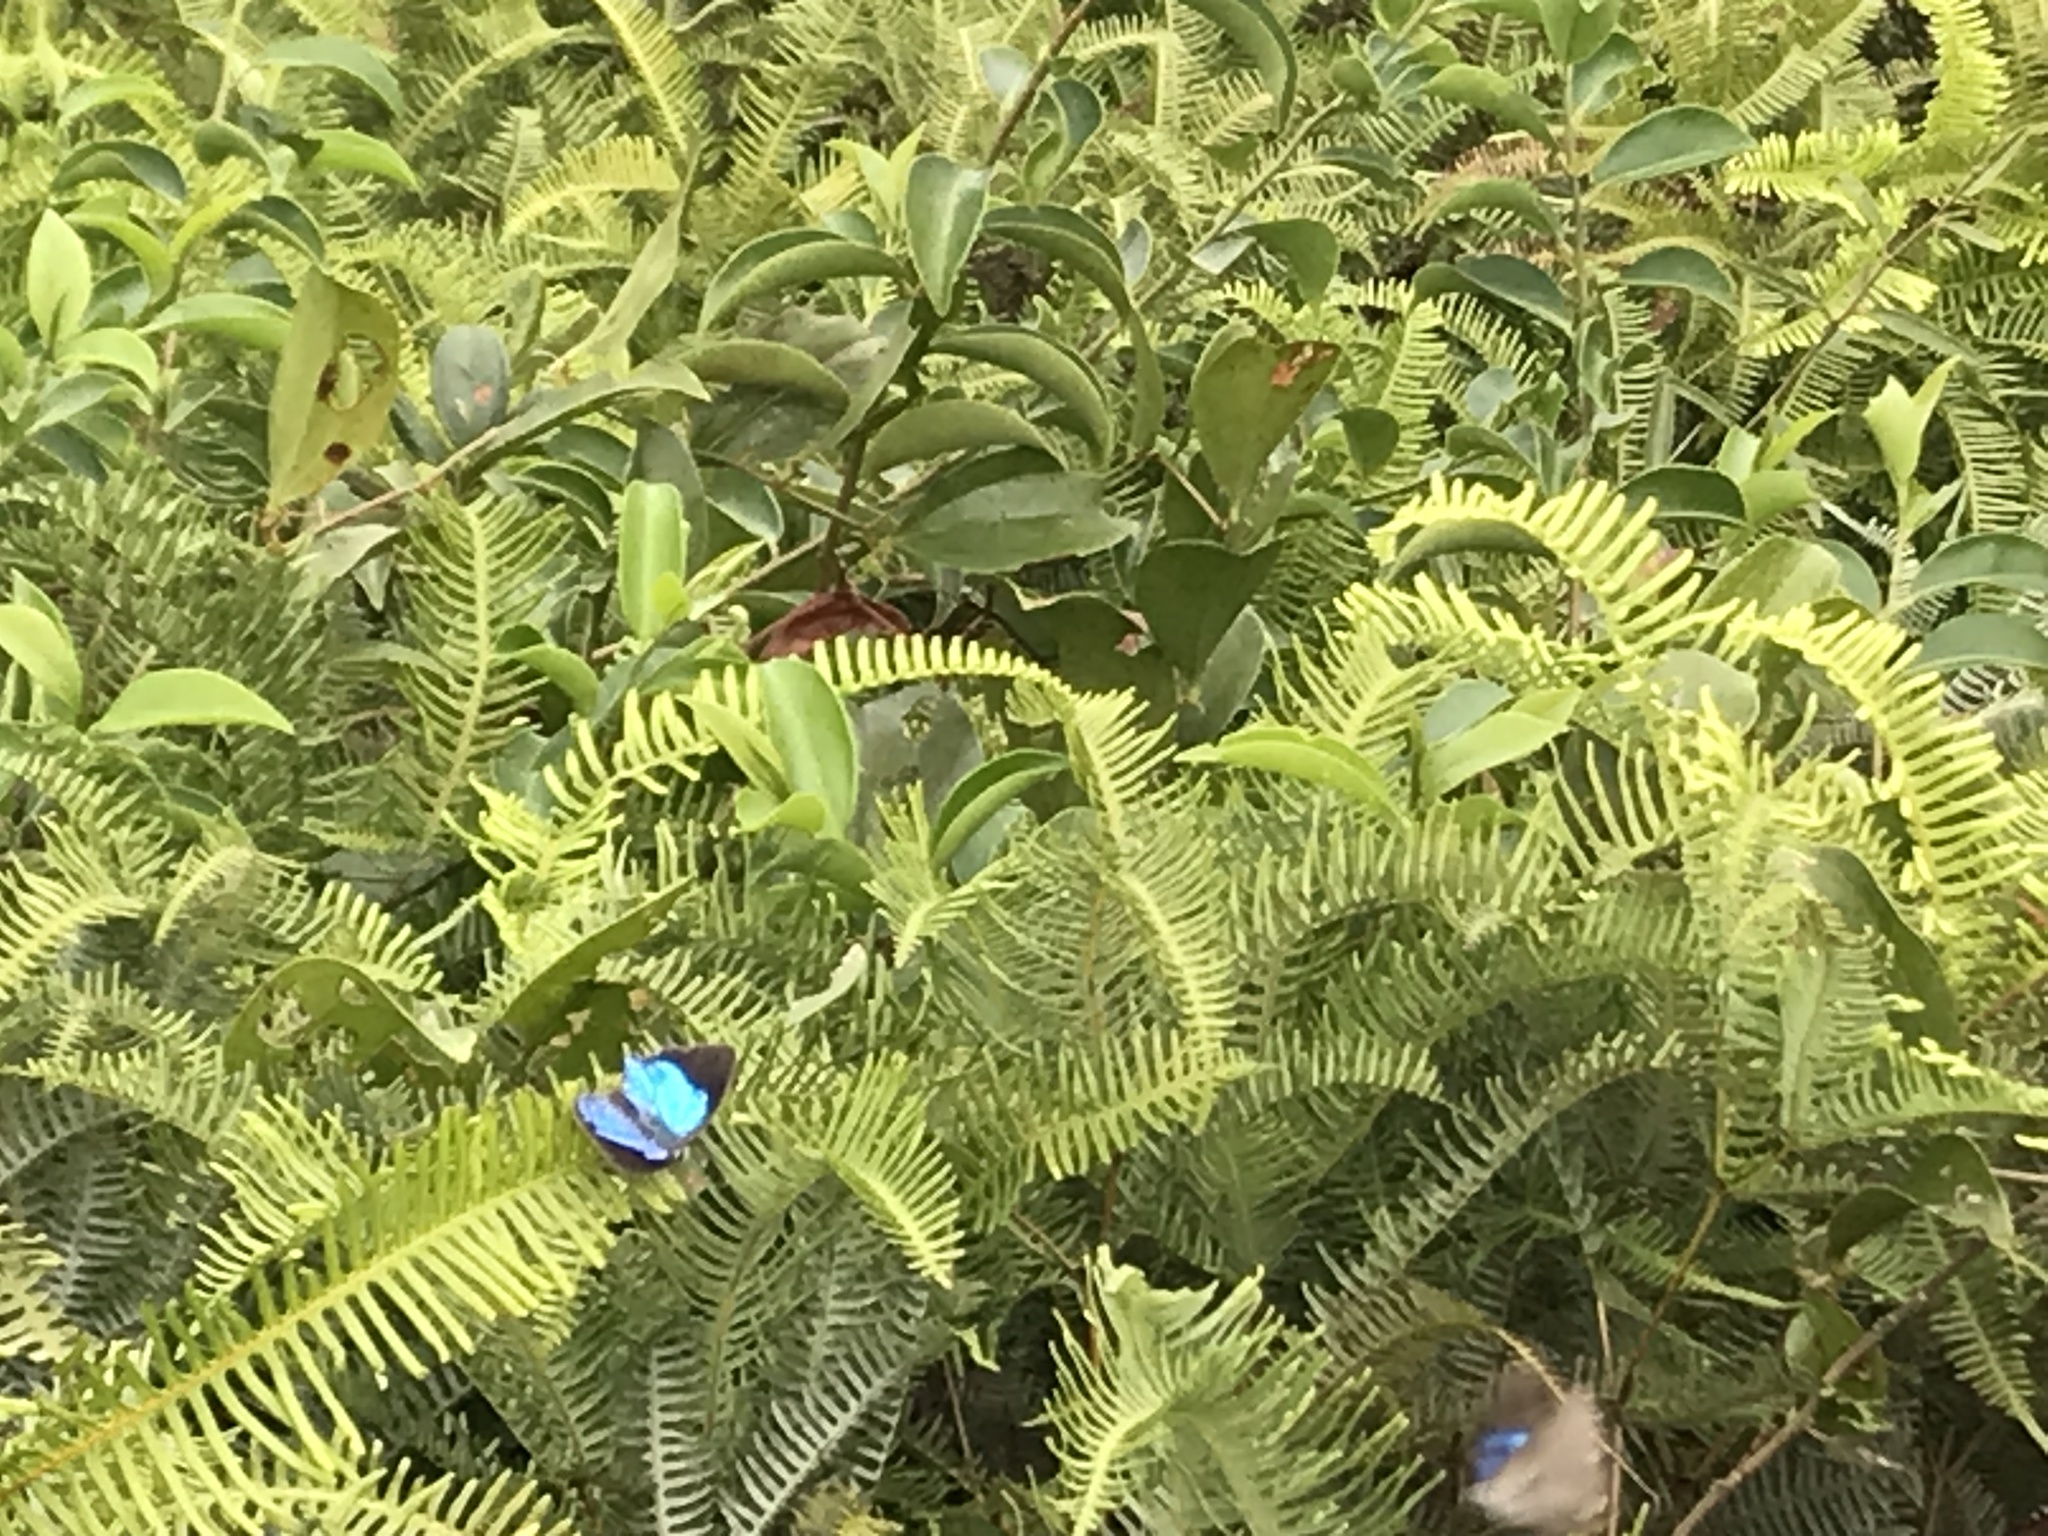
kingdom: Animalia
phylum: Arthropoda
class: Insecta
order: Lepidoptera
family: Lycaenidae
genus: Tajuria
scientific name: Tajuria cippus
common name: Peacock royal
